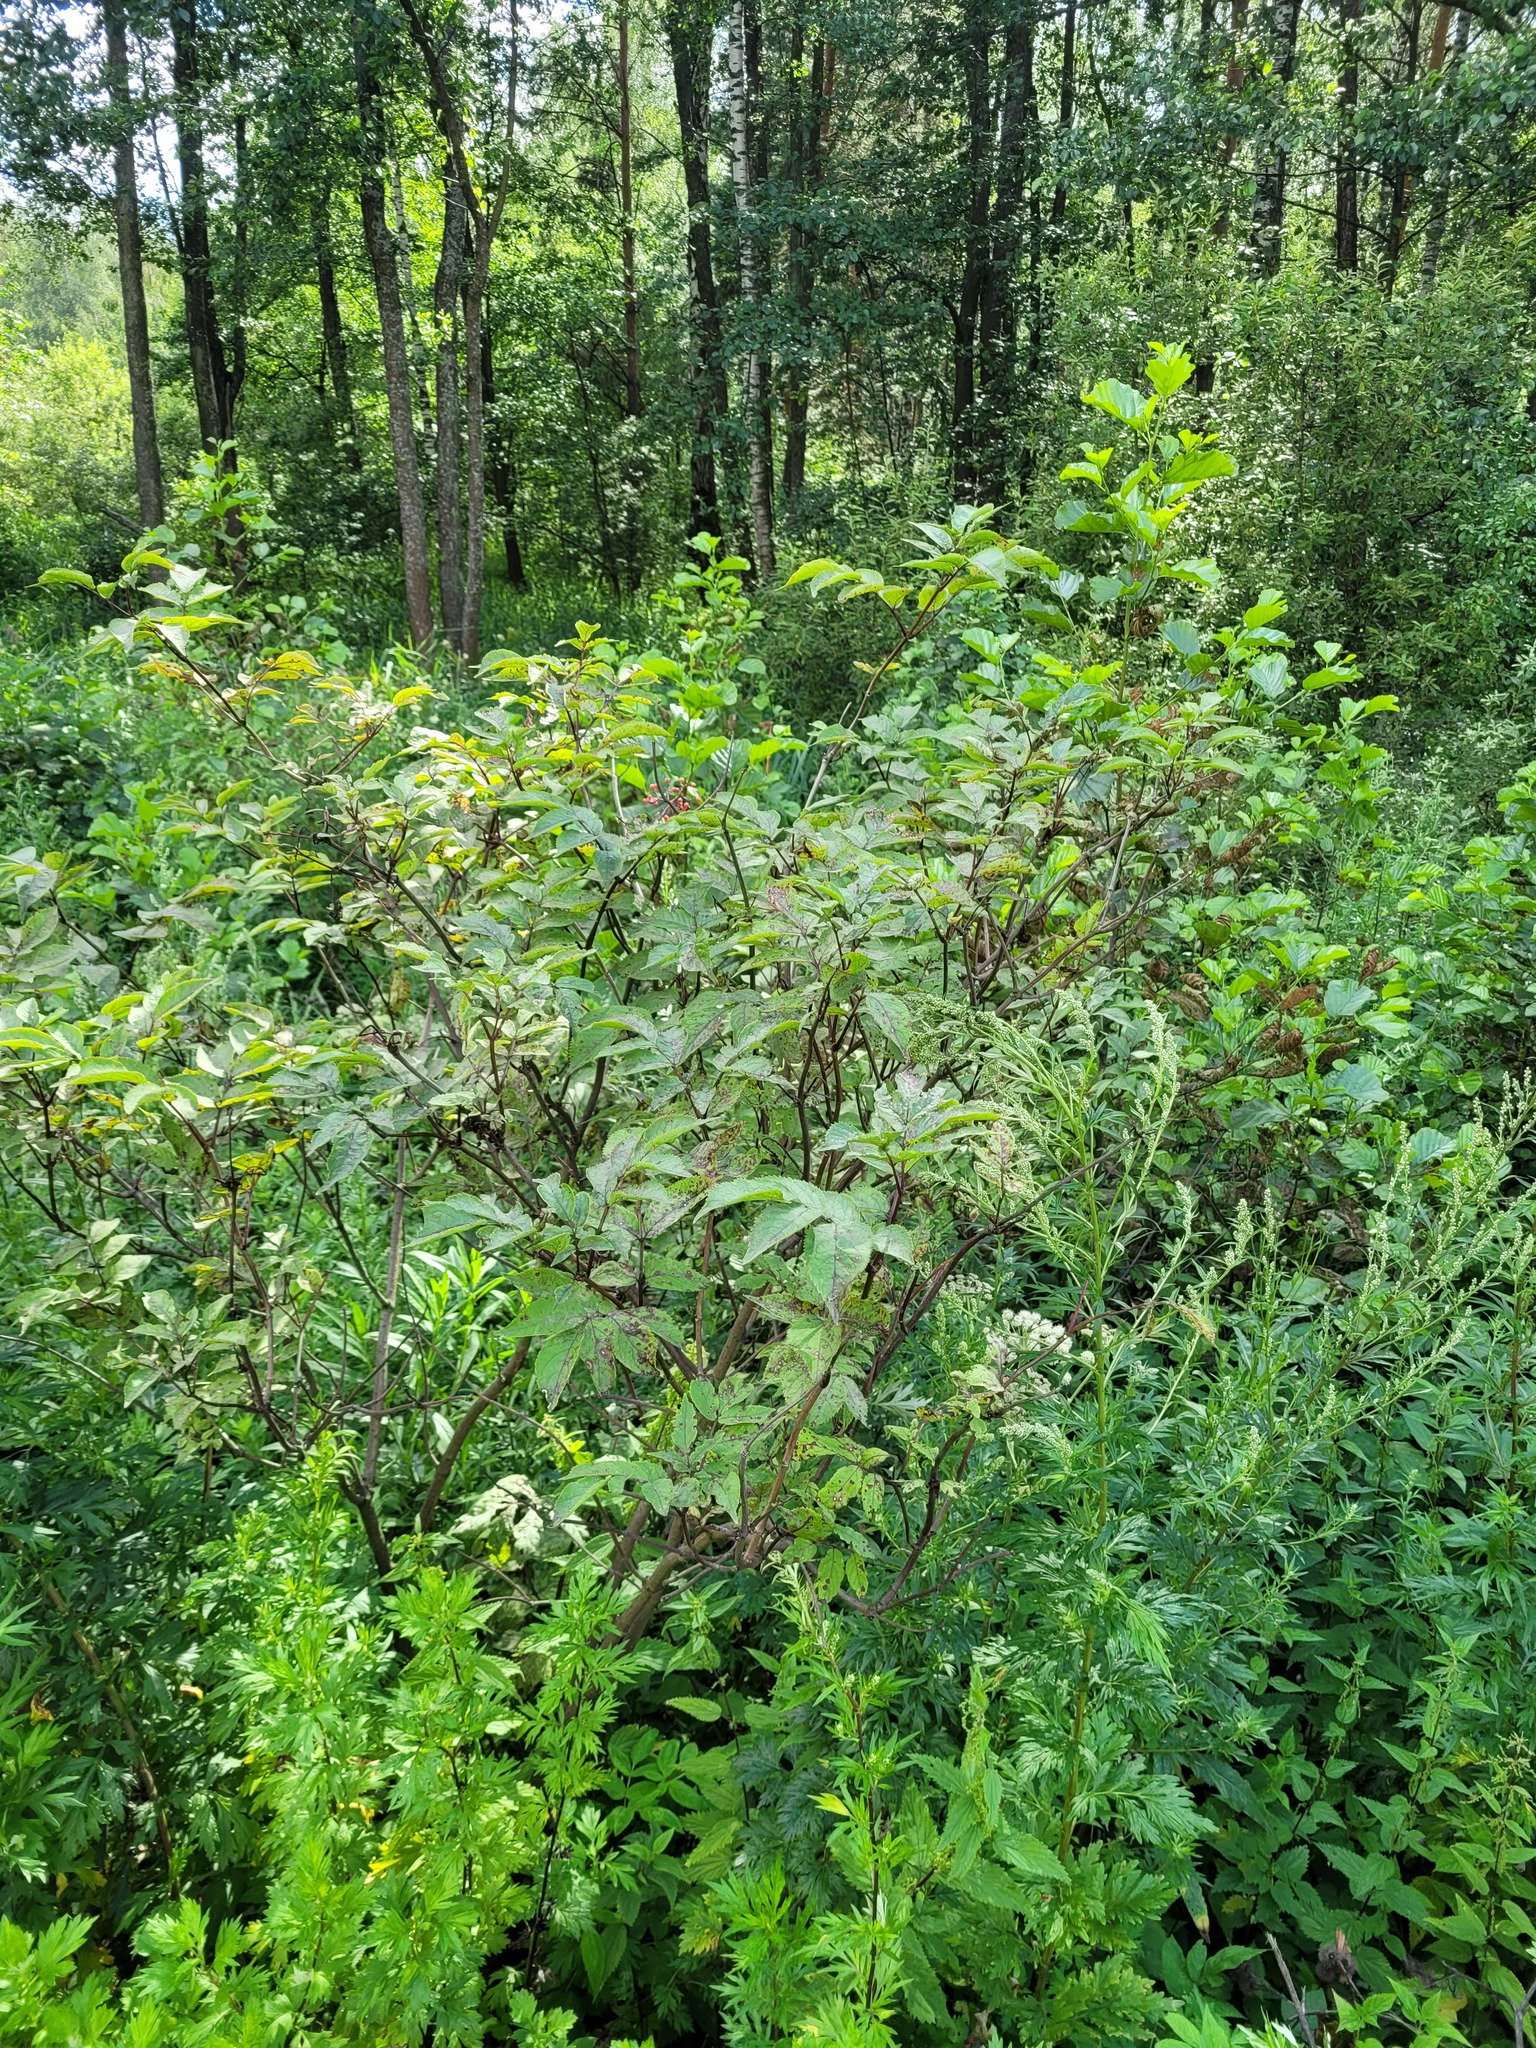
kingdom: Plantae
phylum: Tracheophyta
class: Magnoliopsida
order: Dipsacales
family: Viburnaceae
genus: Sambucus
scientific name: Sambucus racemosa
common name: Red-berried elder
